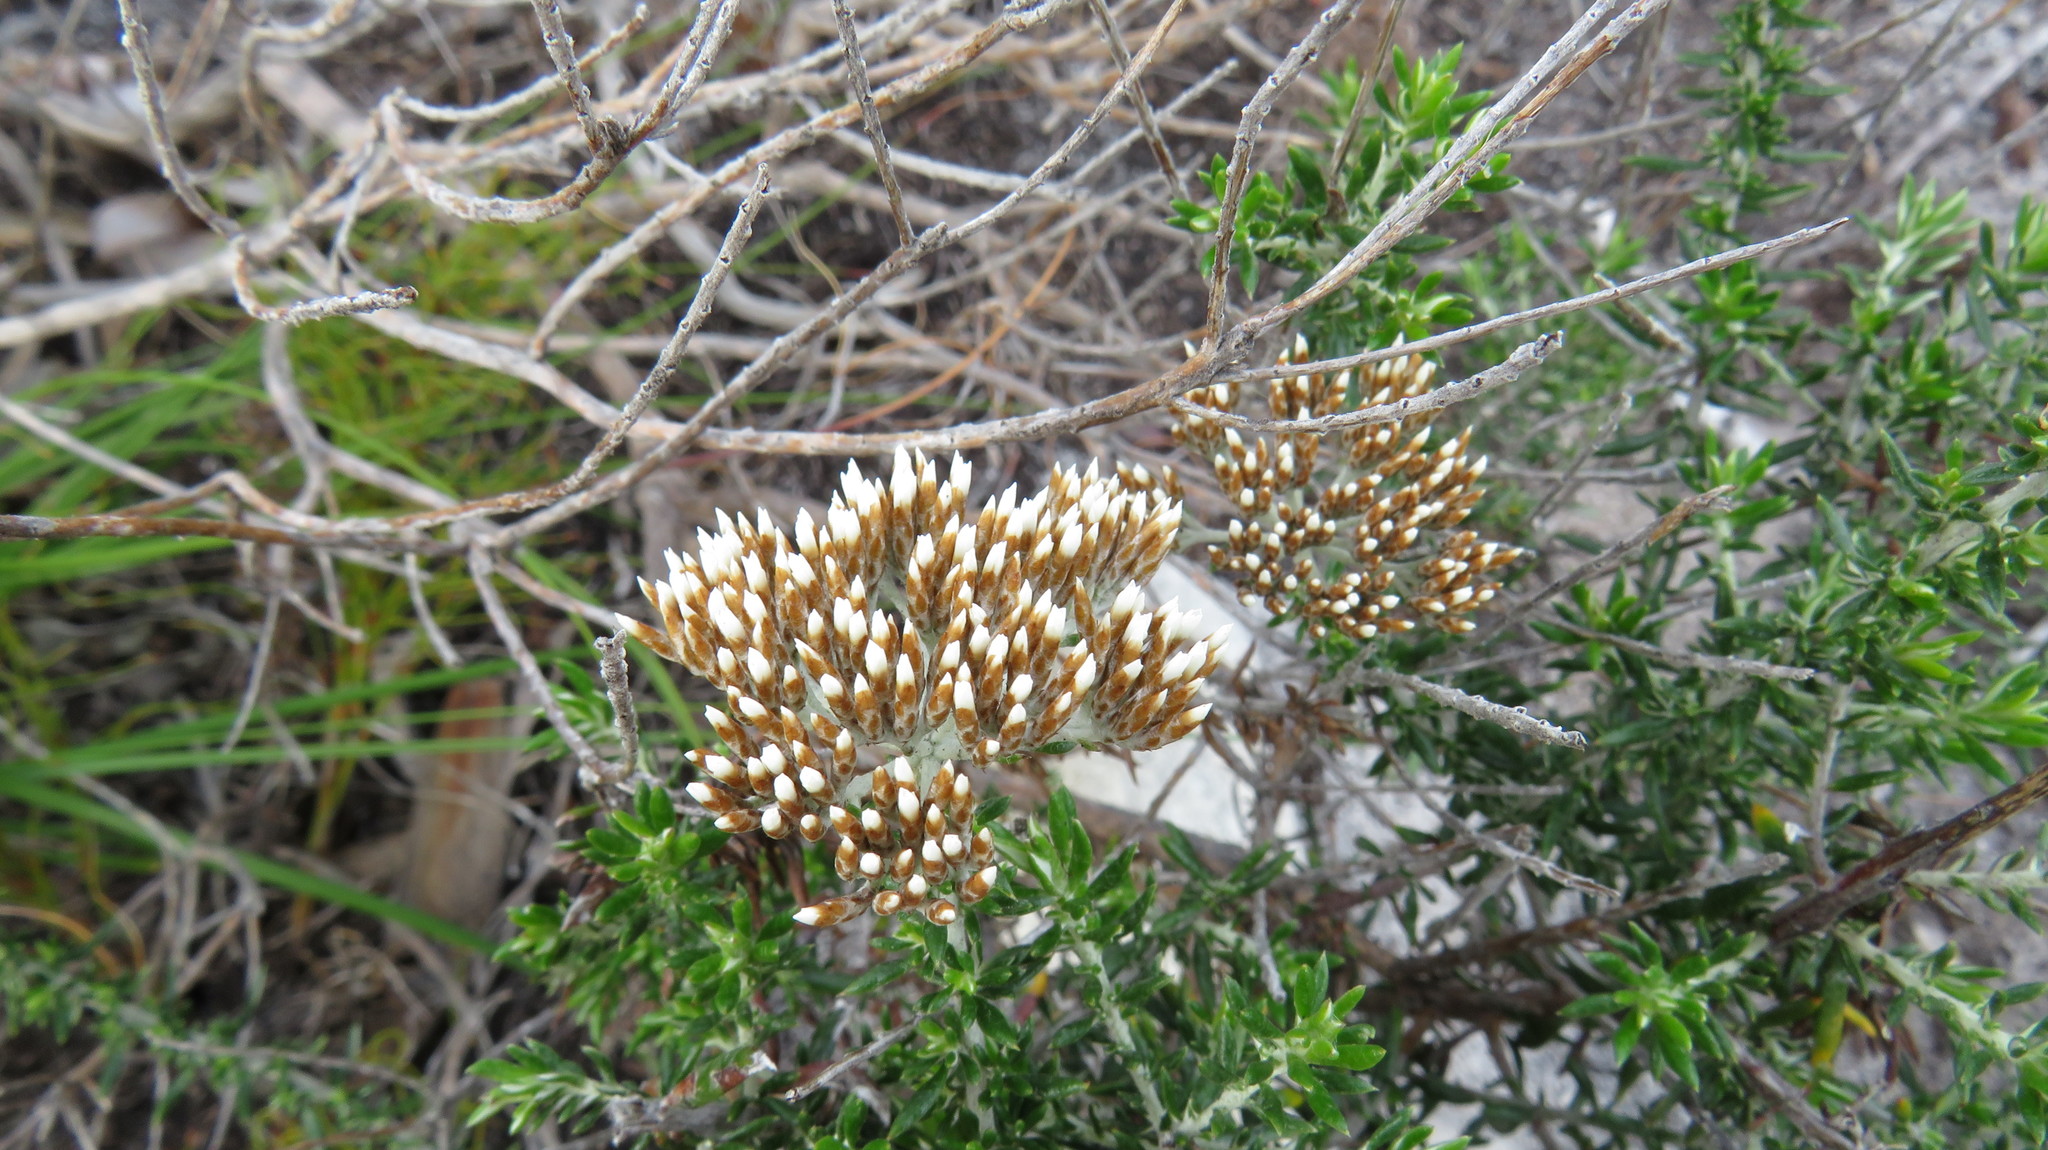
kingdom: Plantae
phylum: Tracheophyta
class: Magnoliopsida
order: Asterales
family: Asteraceae
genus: Metalasia
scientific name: Metalasia densa
